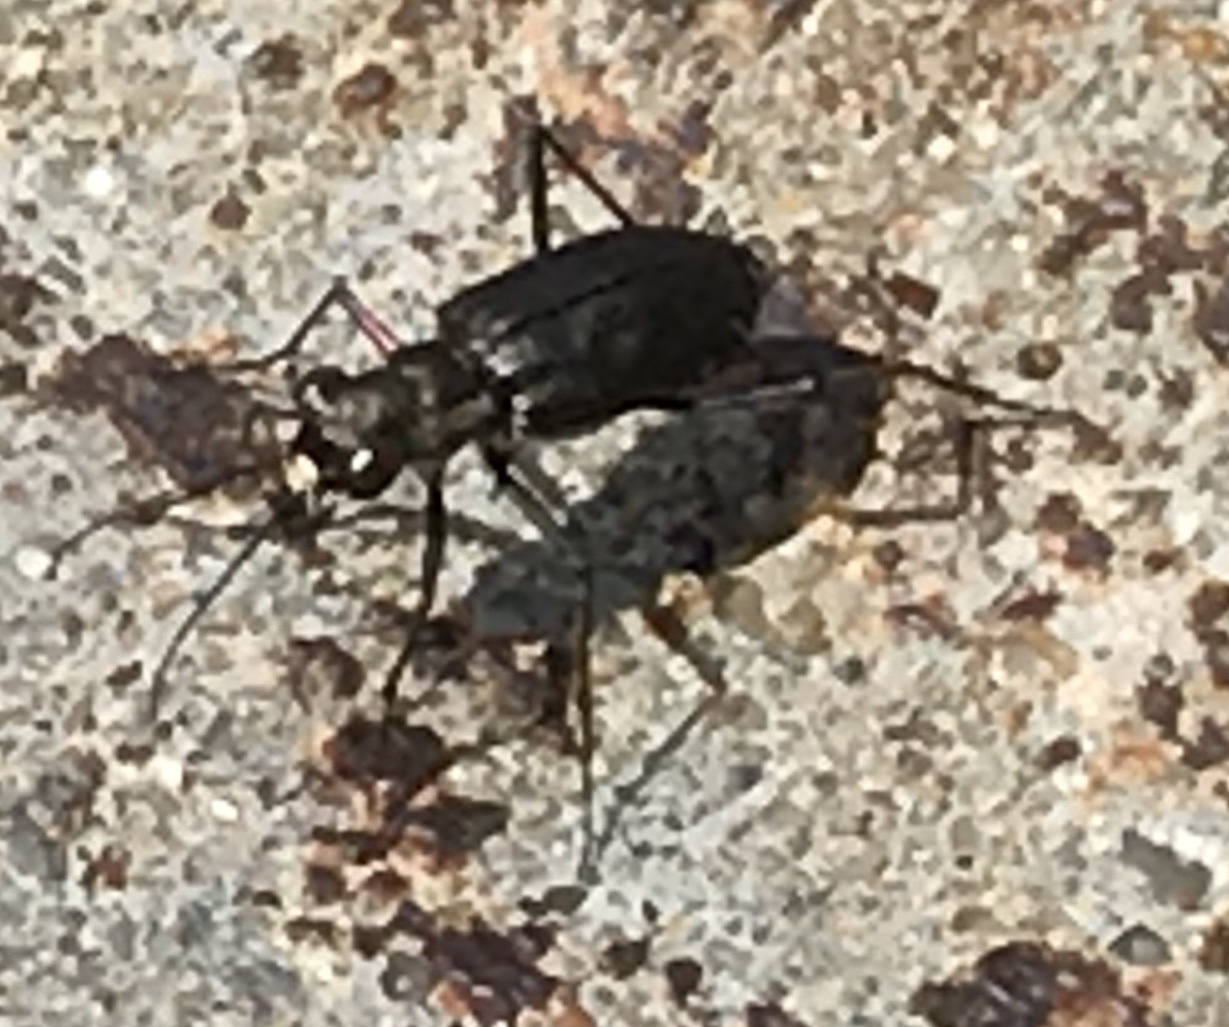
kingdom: Animalia
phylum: Arthropoda
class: Insecta
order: Coleoptera
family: Carabidae
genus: Cicindela
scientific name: Cicindela punctulata
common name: Punctured tiger beetle
